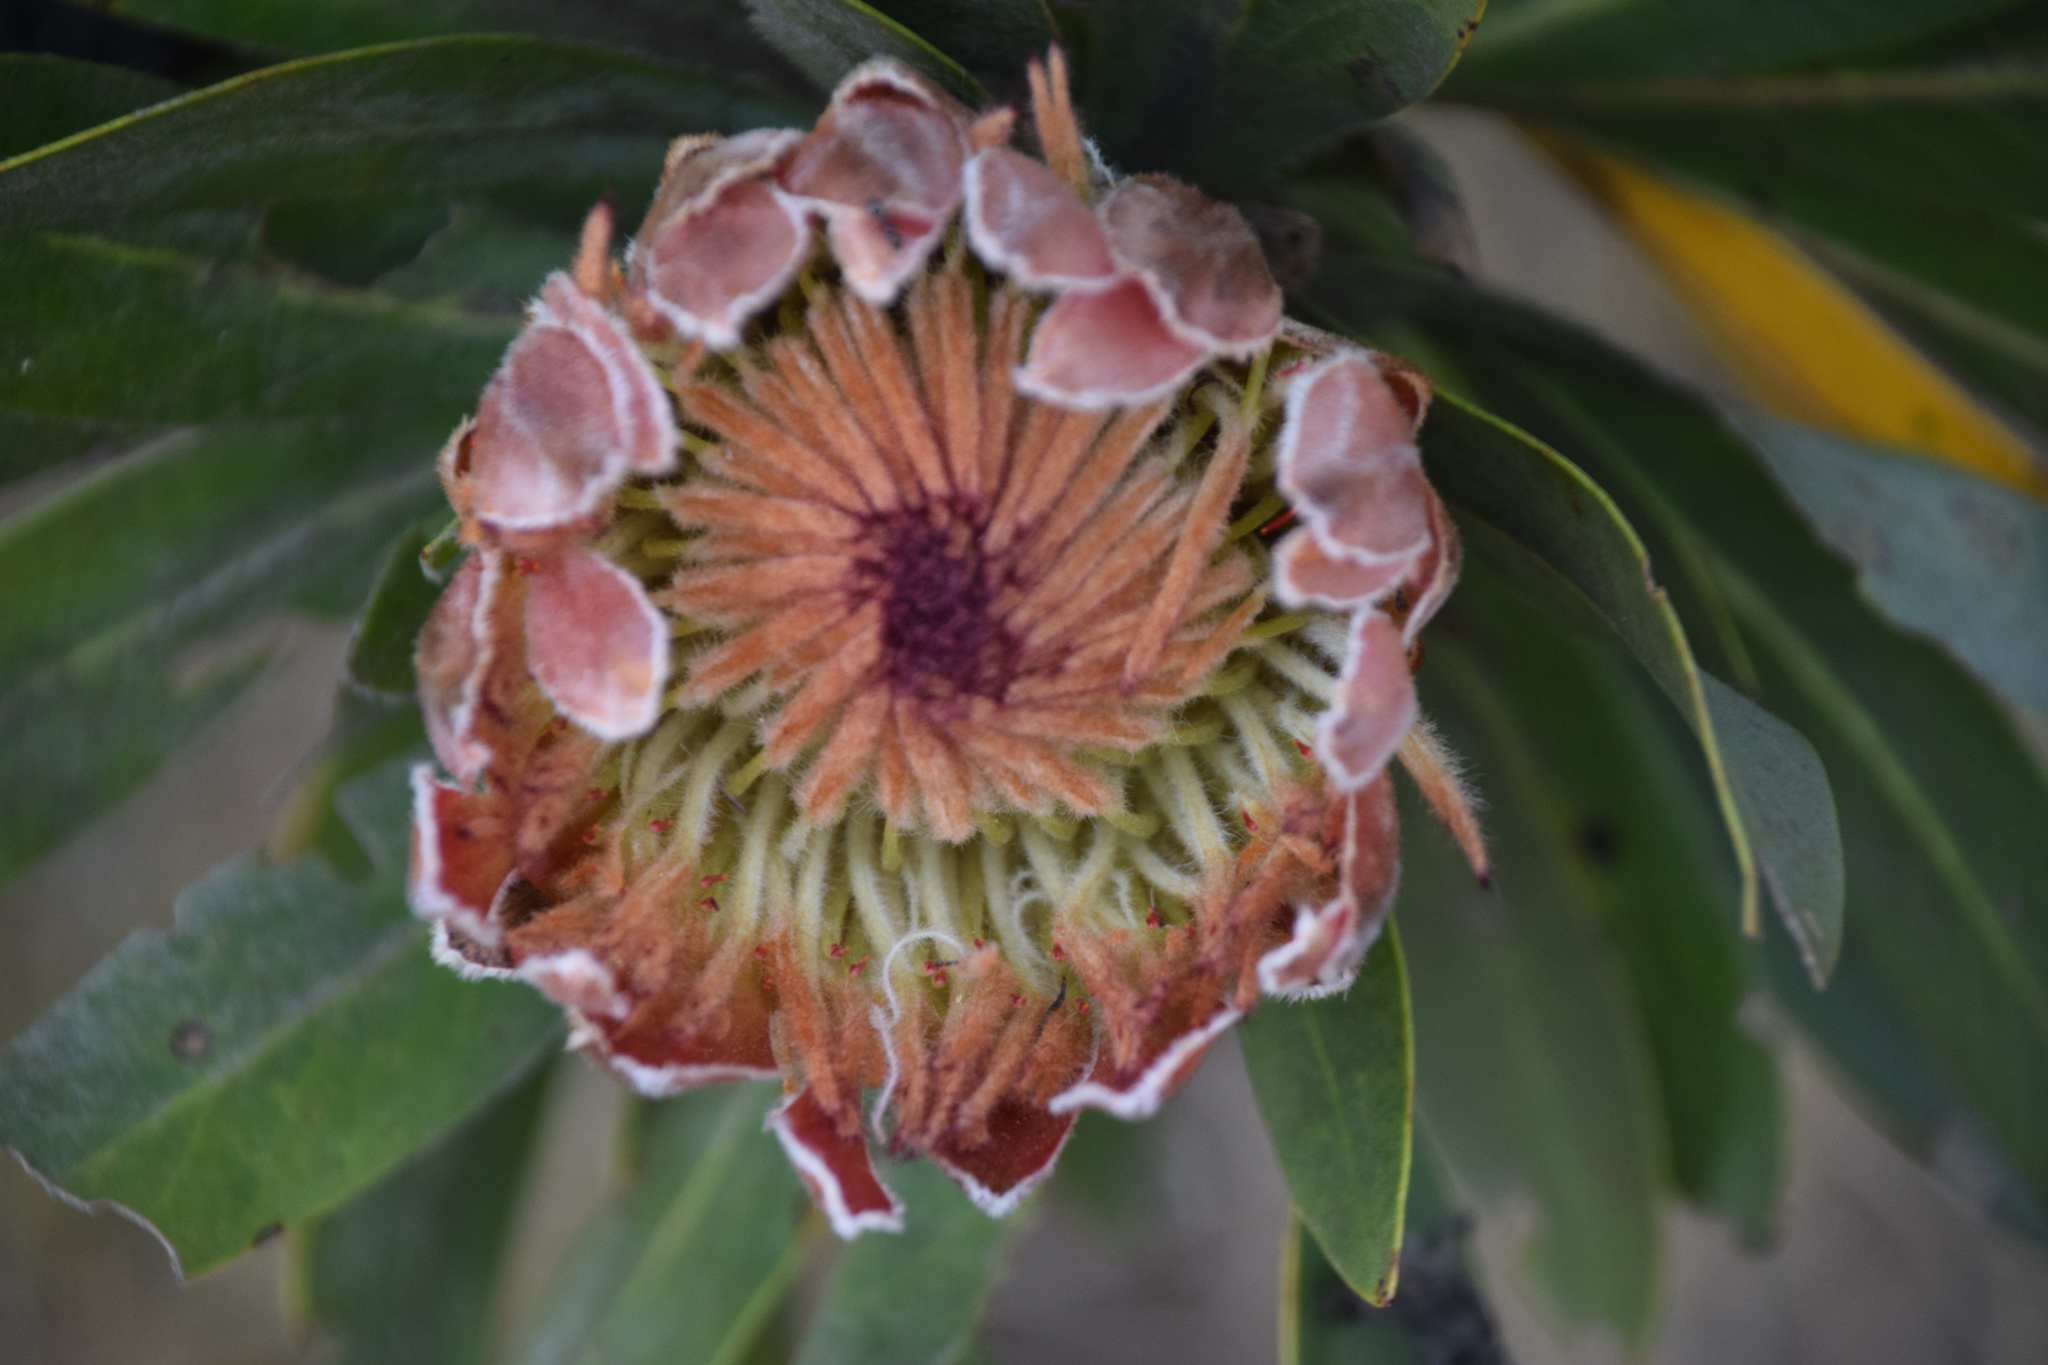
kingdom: Plantae
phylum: Tracheophyta
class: Magnoliopsida
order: Proteales
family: Proteaceae
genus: Protea
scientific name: Protea roupelliae
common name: Silver sugarbush
